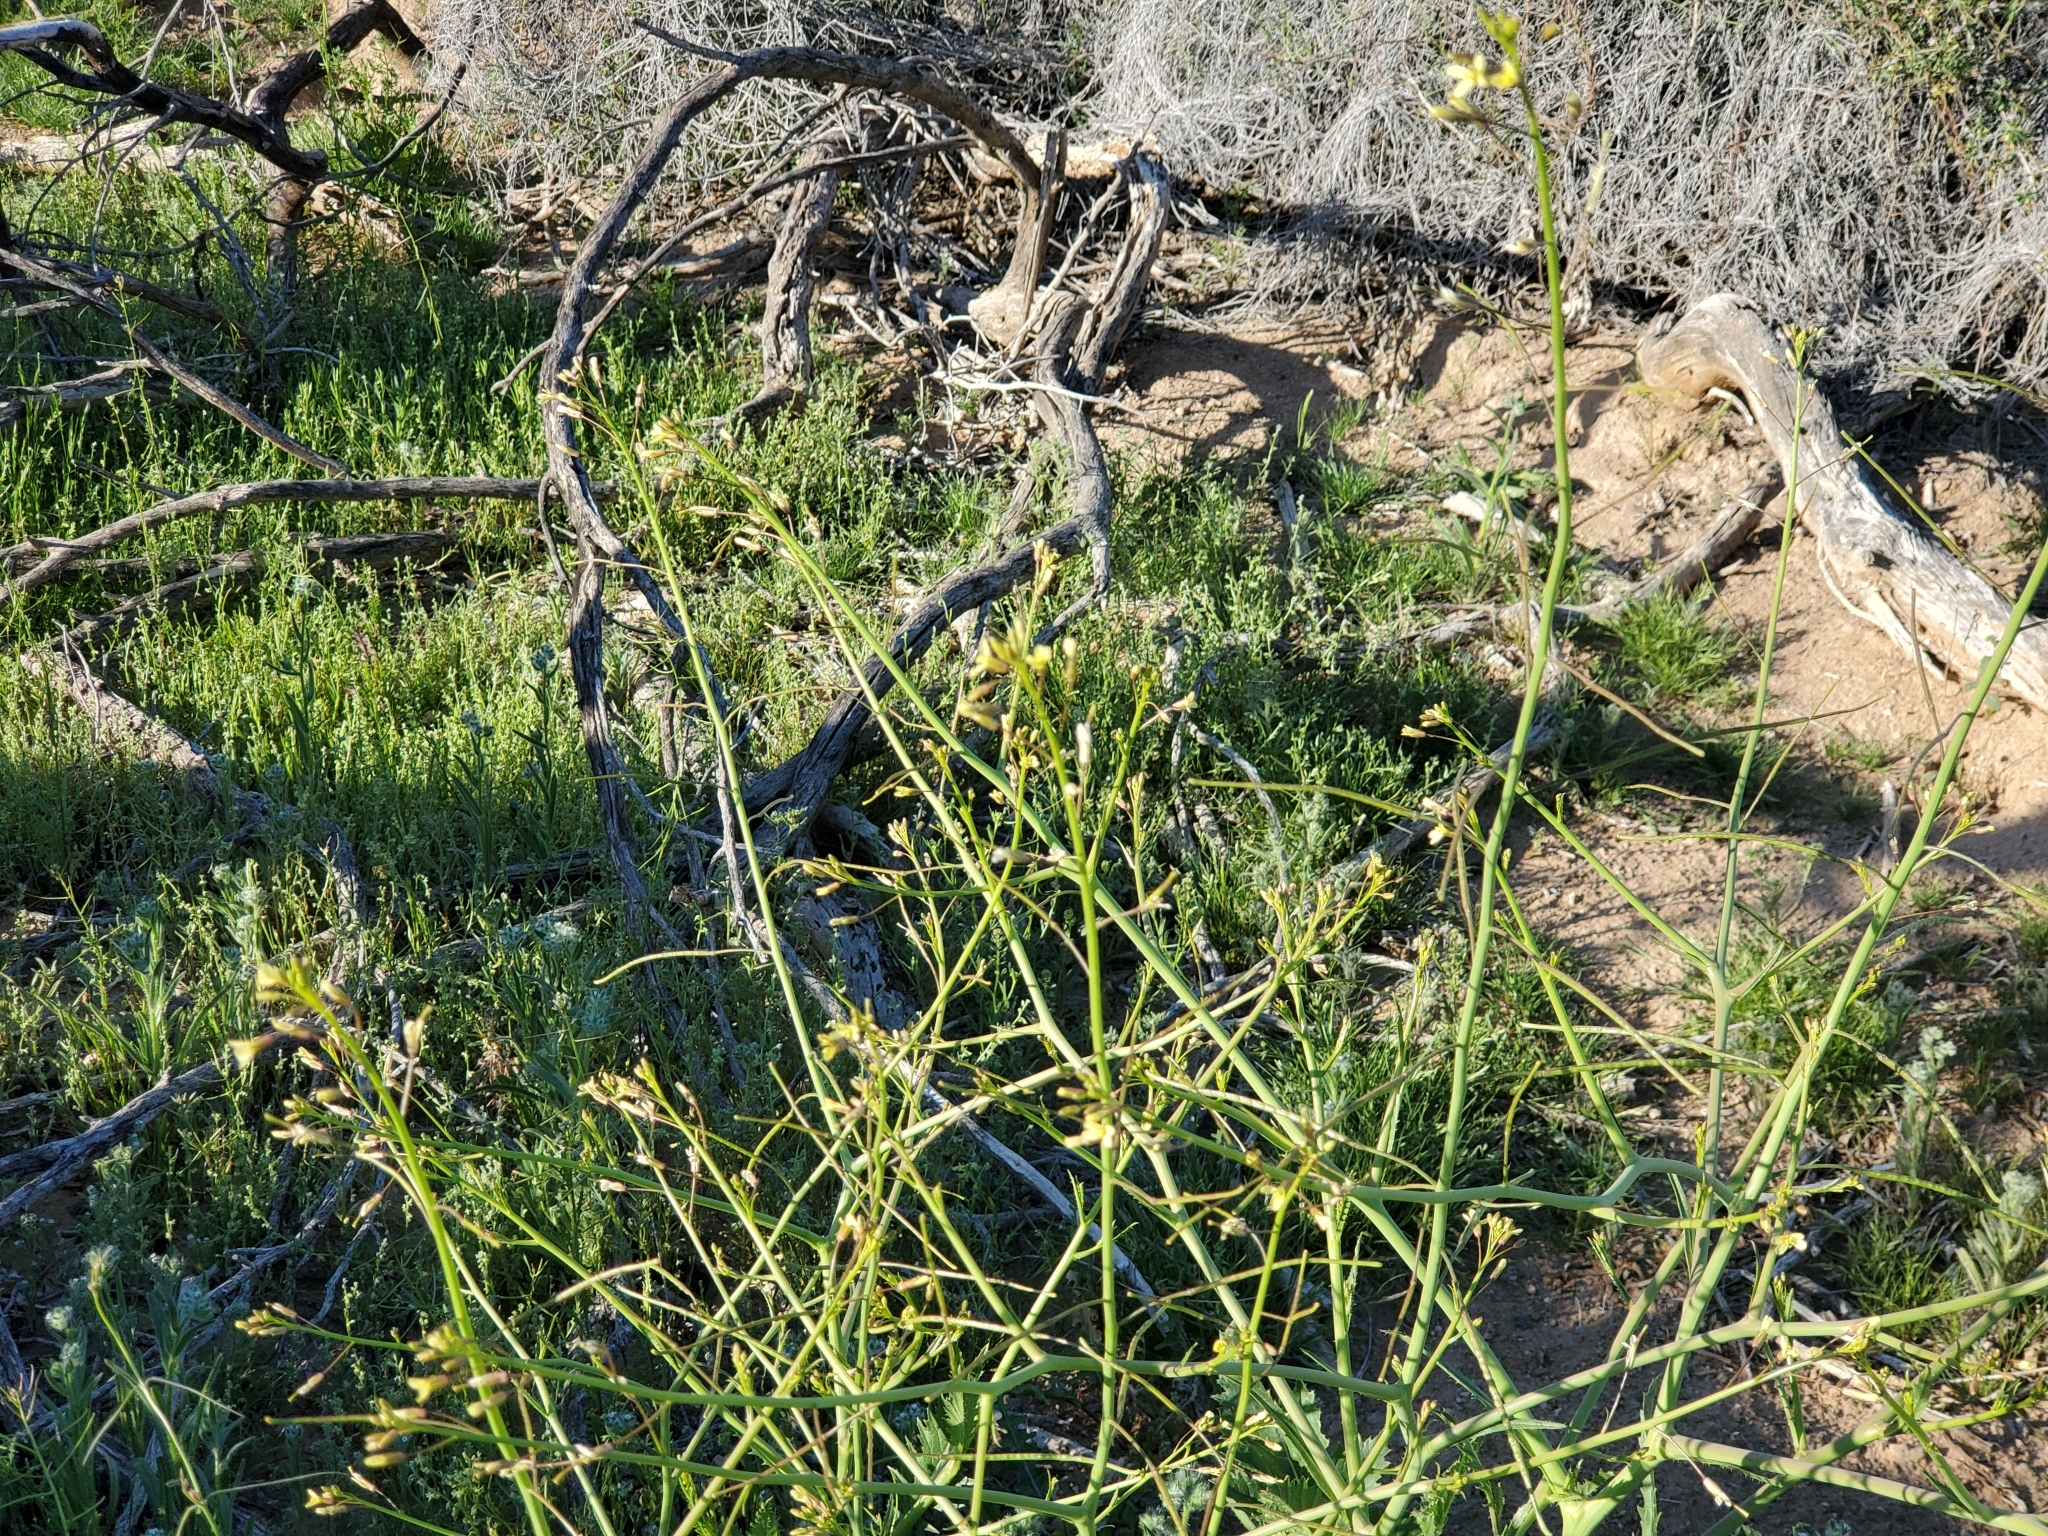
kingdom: Plantae
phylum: Tracheophyta
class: Magnoliopsida
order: Brassicales
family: Brassicaceae
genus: Brassica
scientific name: Brassica tournefortii
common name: Pale cabbage
